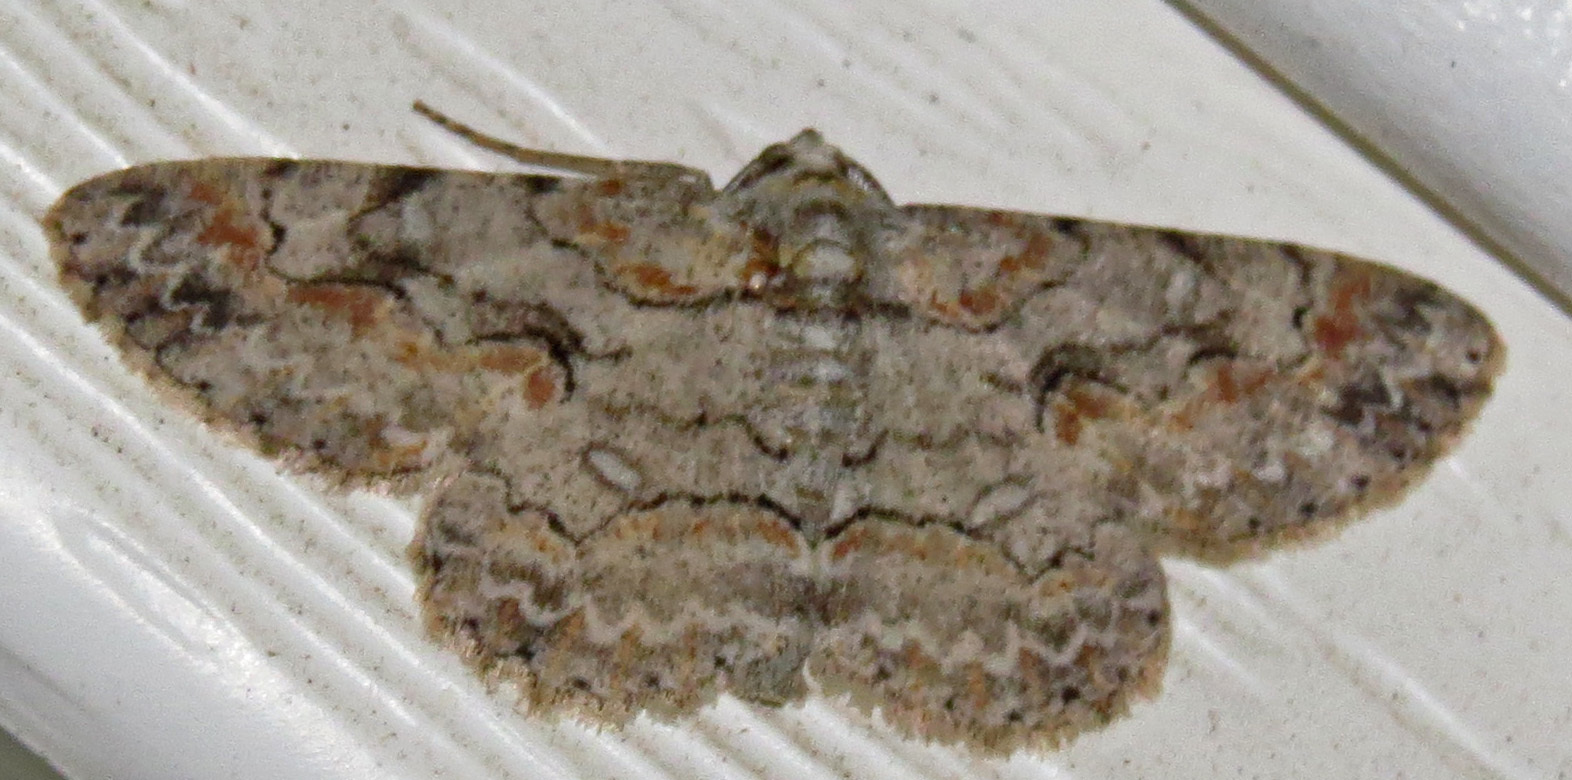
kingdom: Animalia
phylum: Arthropoda
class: Insecta
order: Lepidoptera
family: Geometridae
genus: Iridopsis
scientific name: Iridopsis defectaria
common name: Brown-shaded gray
